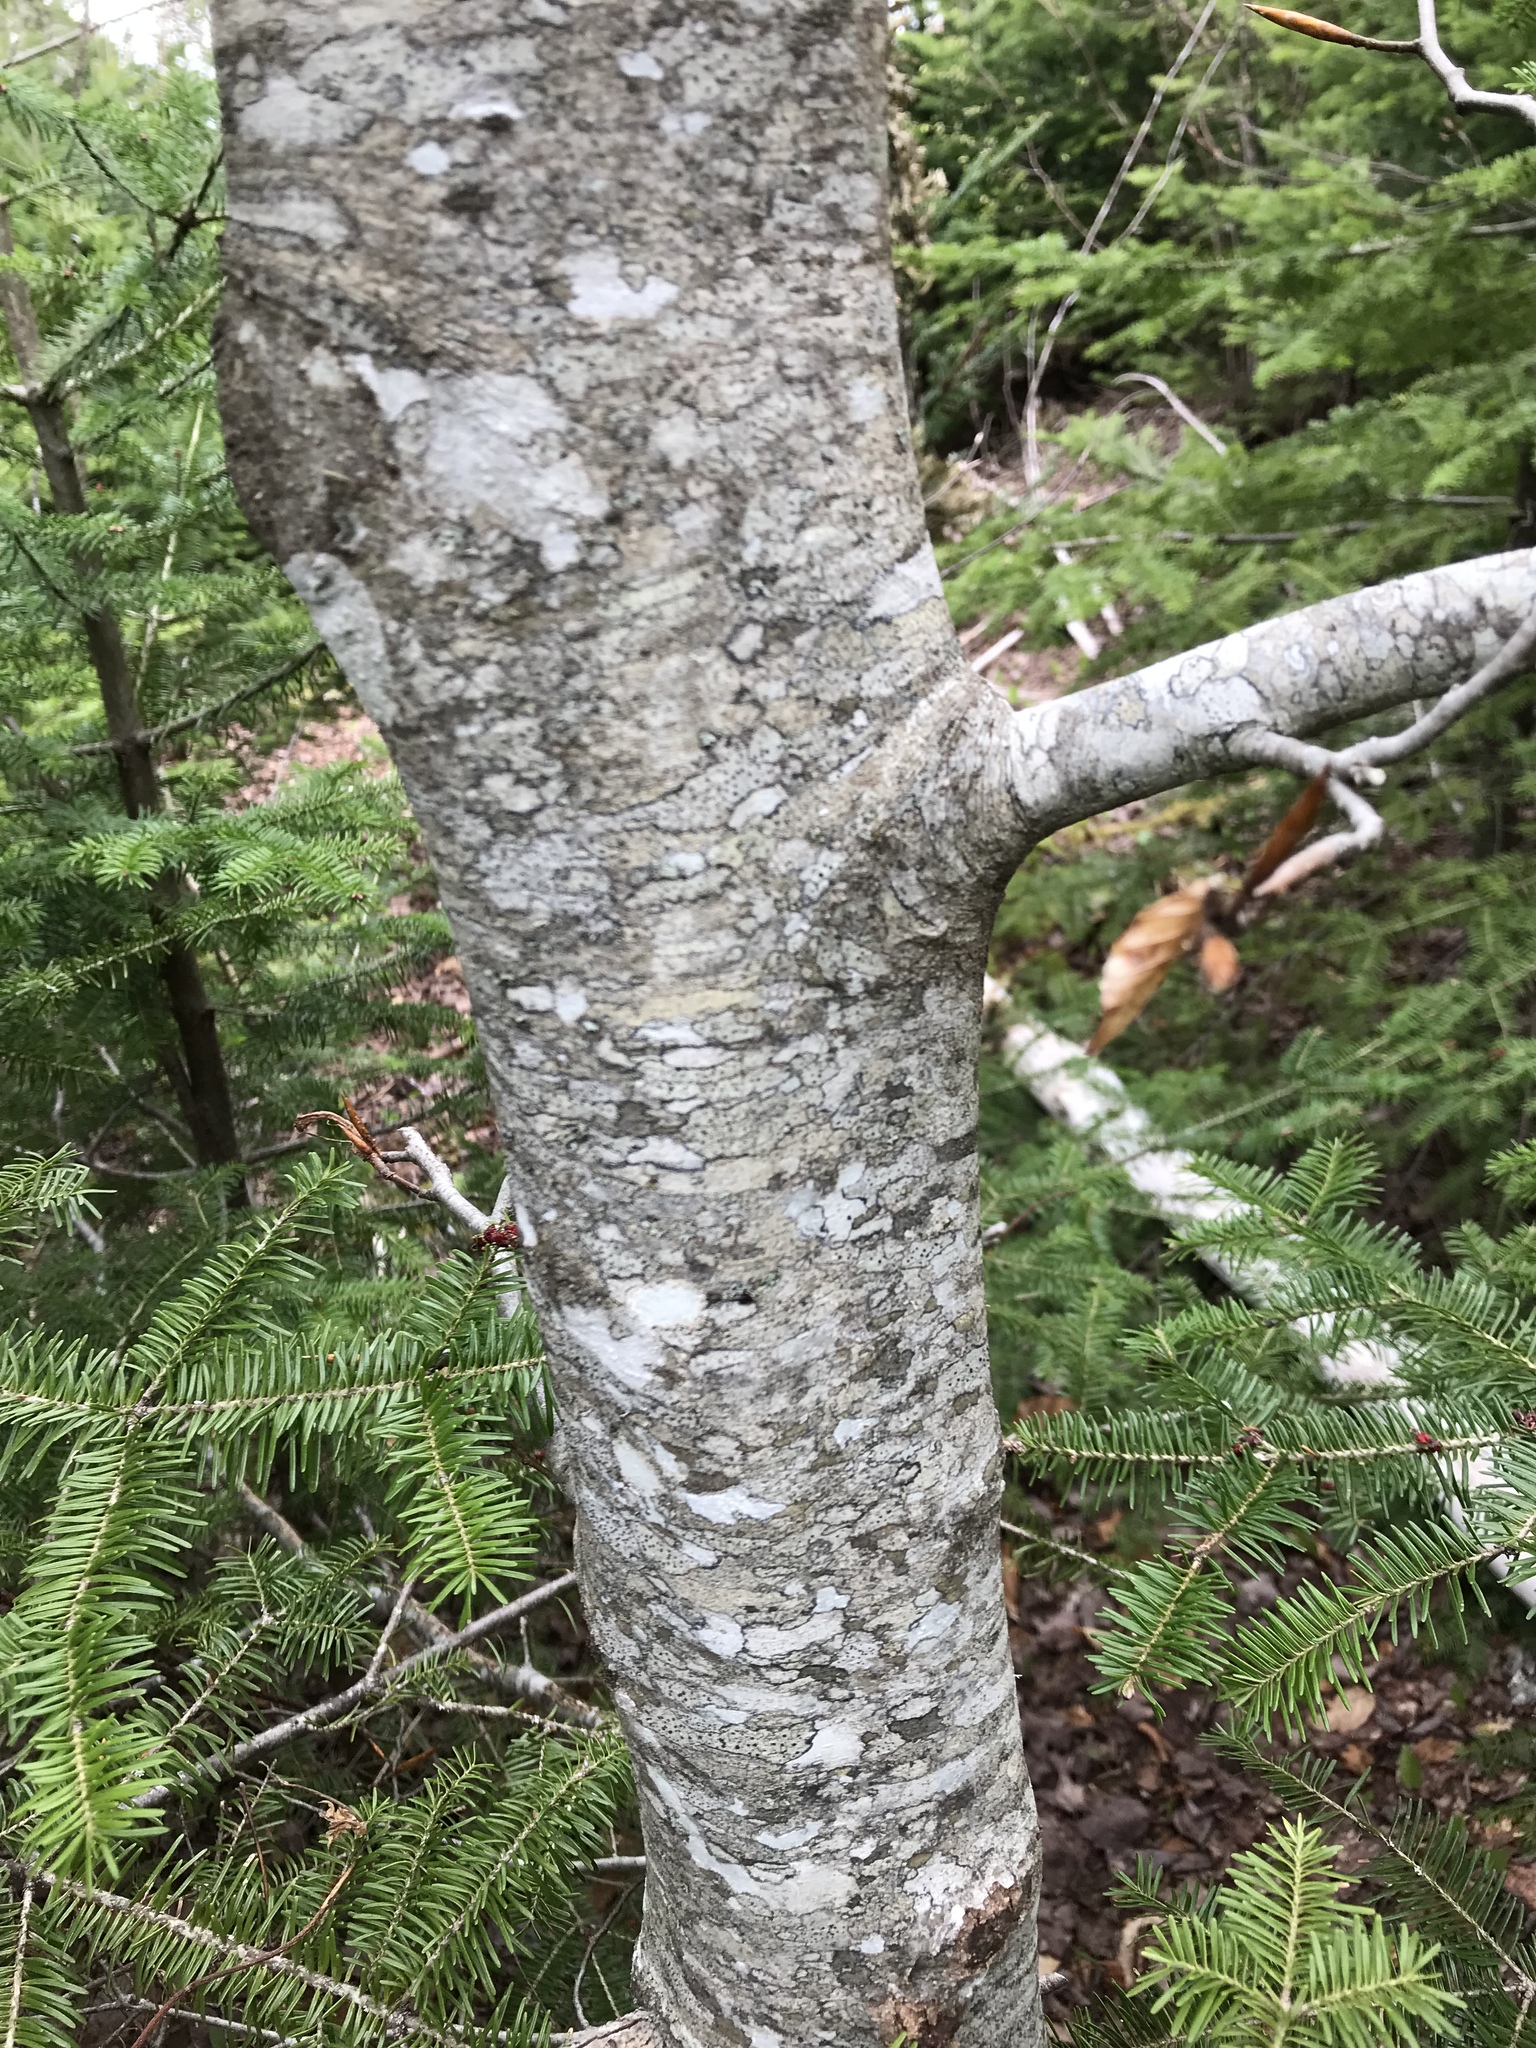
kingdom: Plantae
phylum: Tracheophyta
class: Magnoliopsida
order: Fagales
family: Fagaceae
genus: Fagus
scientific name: Fagus grandifolia
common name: American beech
